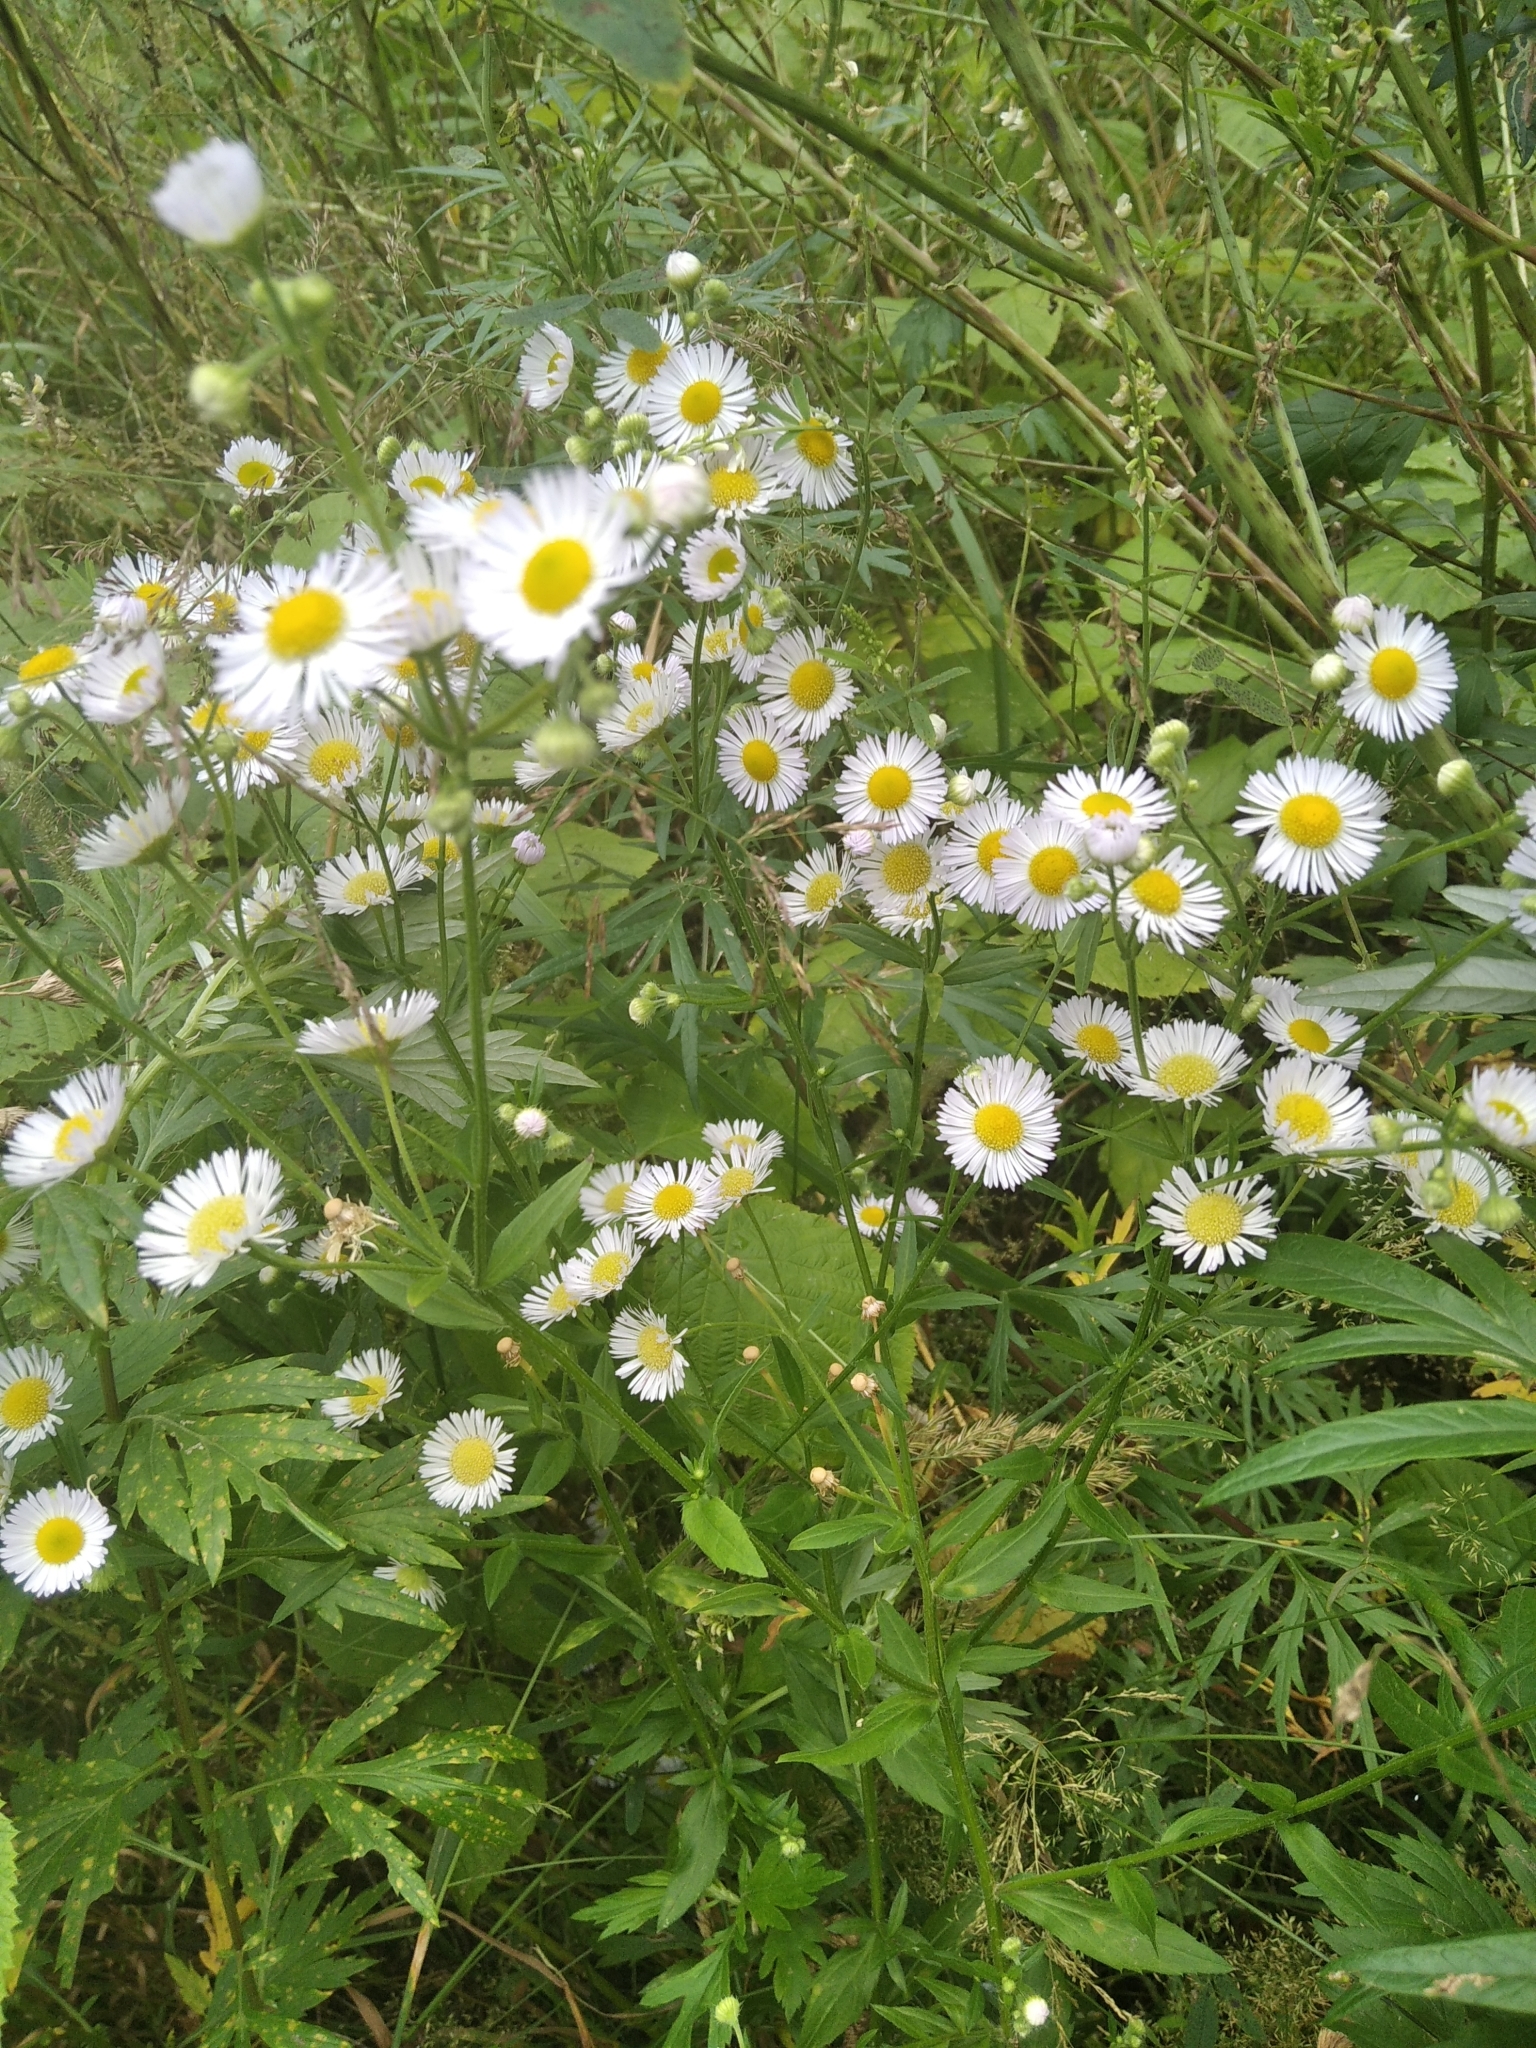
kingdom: Plantae
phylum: Tracheophyta
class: Magnoliopsida
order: Asterales
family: Asteraceae
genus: Erigeron
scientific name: Erigeron annuus
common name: Tall fleabane
